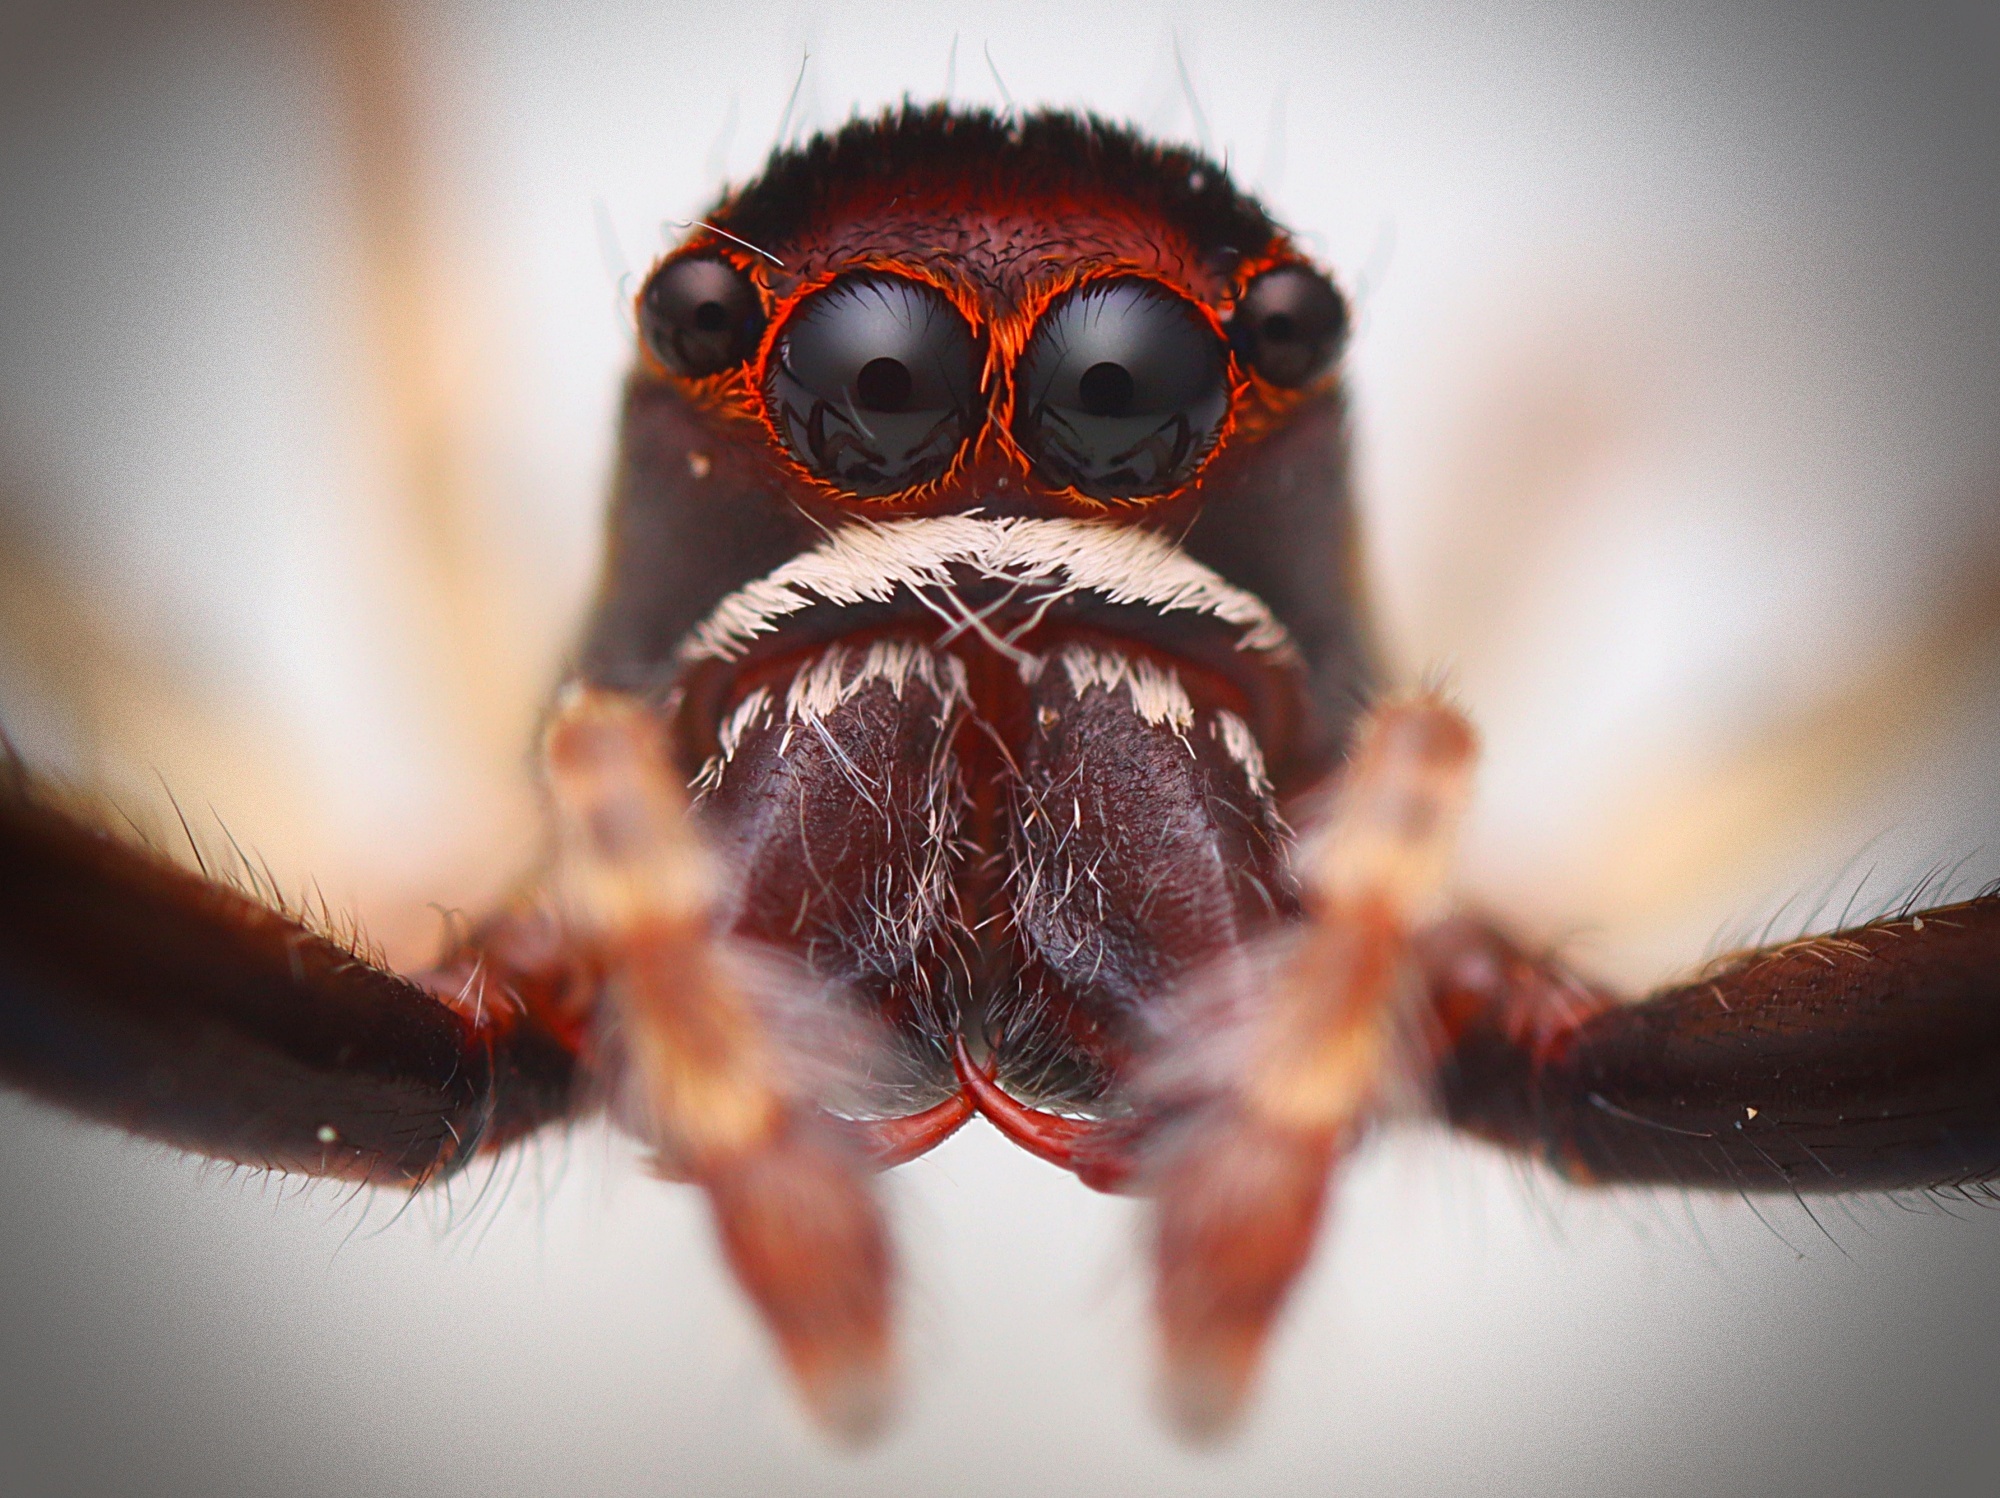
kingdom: Animalia
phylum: Arthropoda
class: Arachnida
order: Araneae
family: Salticidae
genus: Helpis
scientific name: Helpis minitabunda
